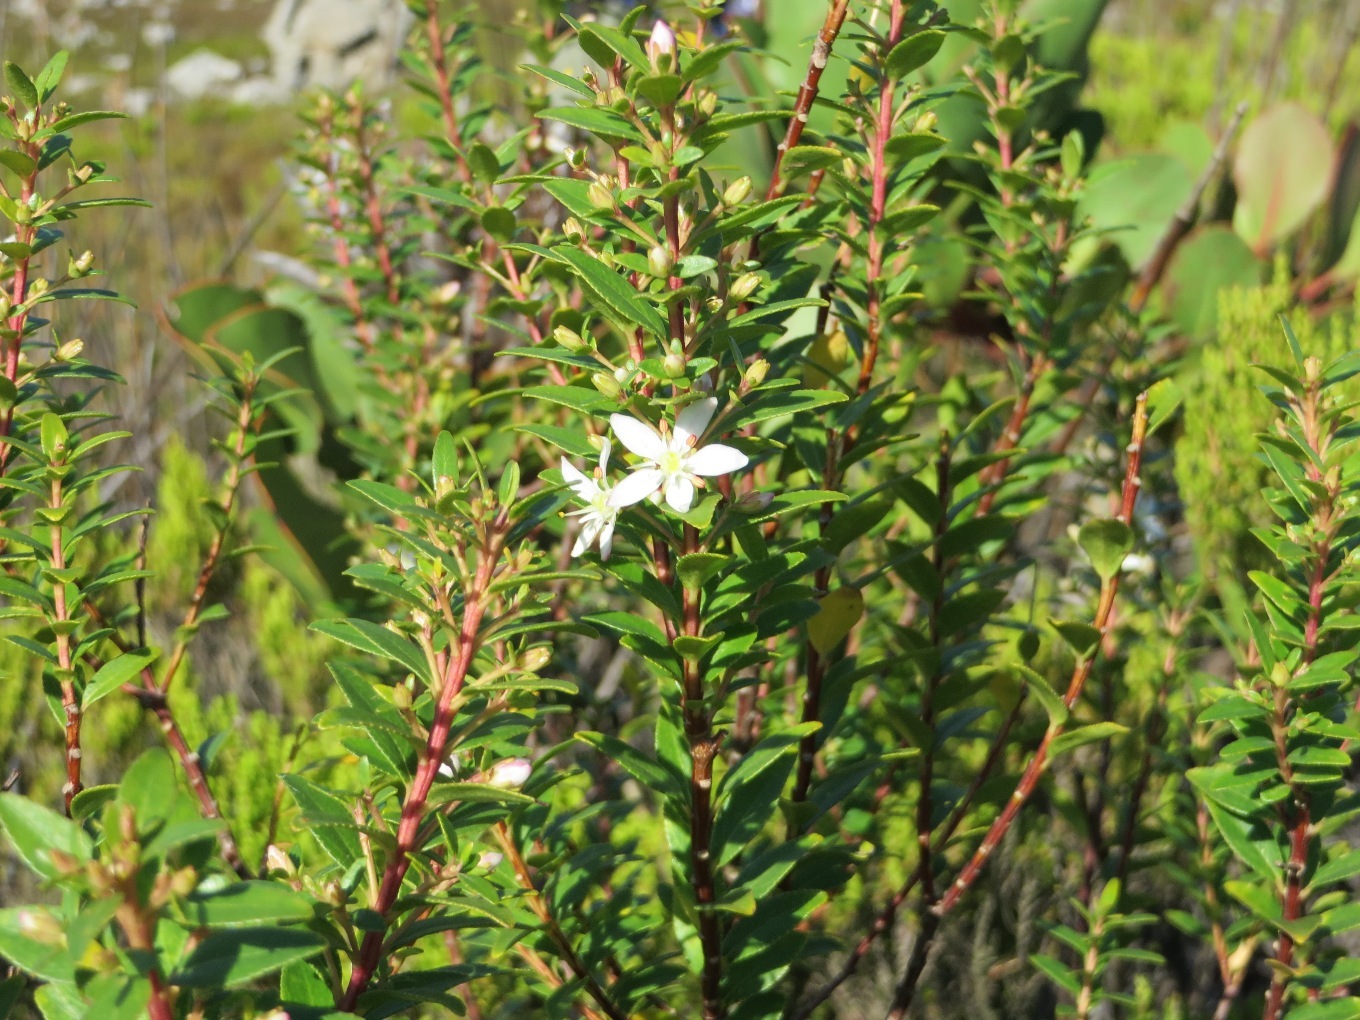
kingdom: Plantae
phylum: Tracheophyta
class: Magnoliopsida
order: Sapindales
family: Rutaceae
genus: Agathosma
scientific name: Agathosma crenulata
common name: Oval buchu
